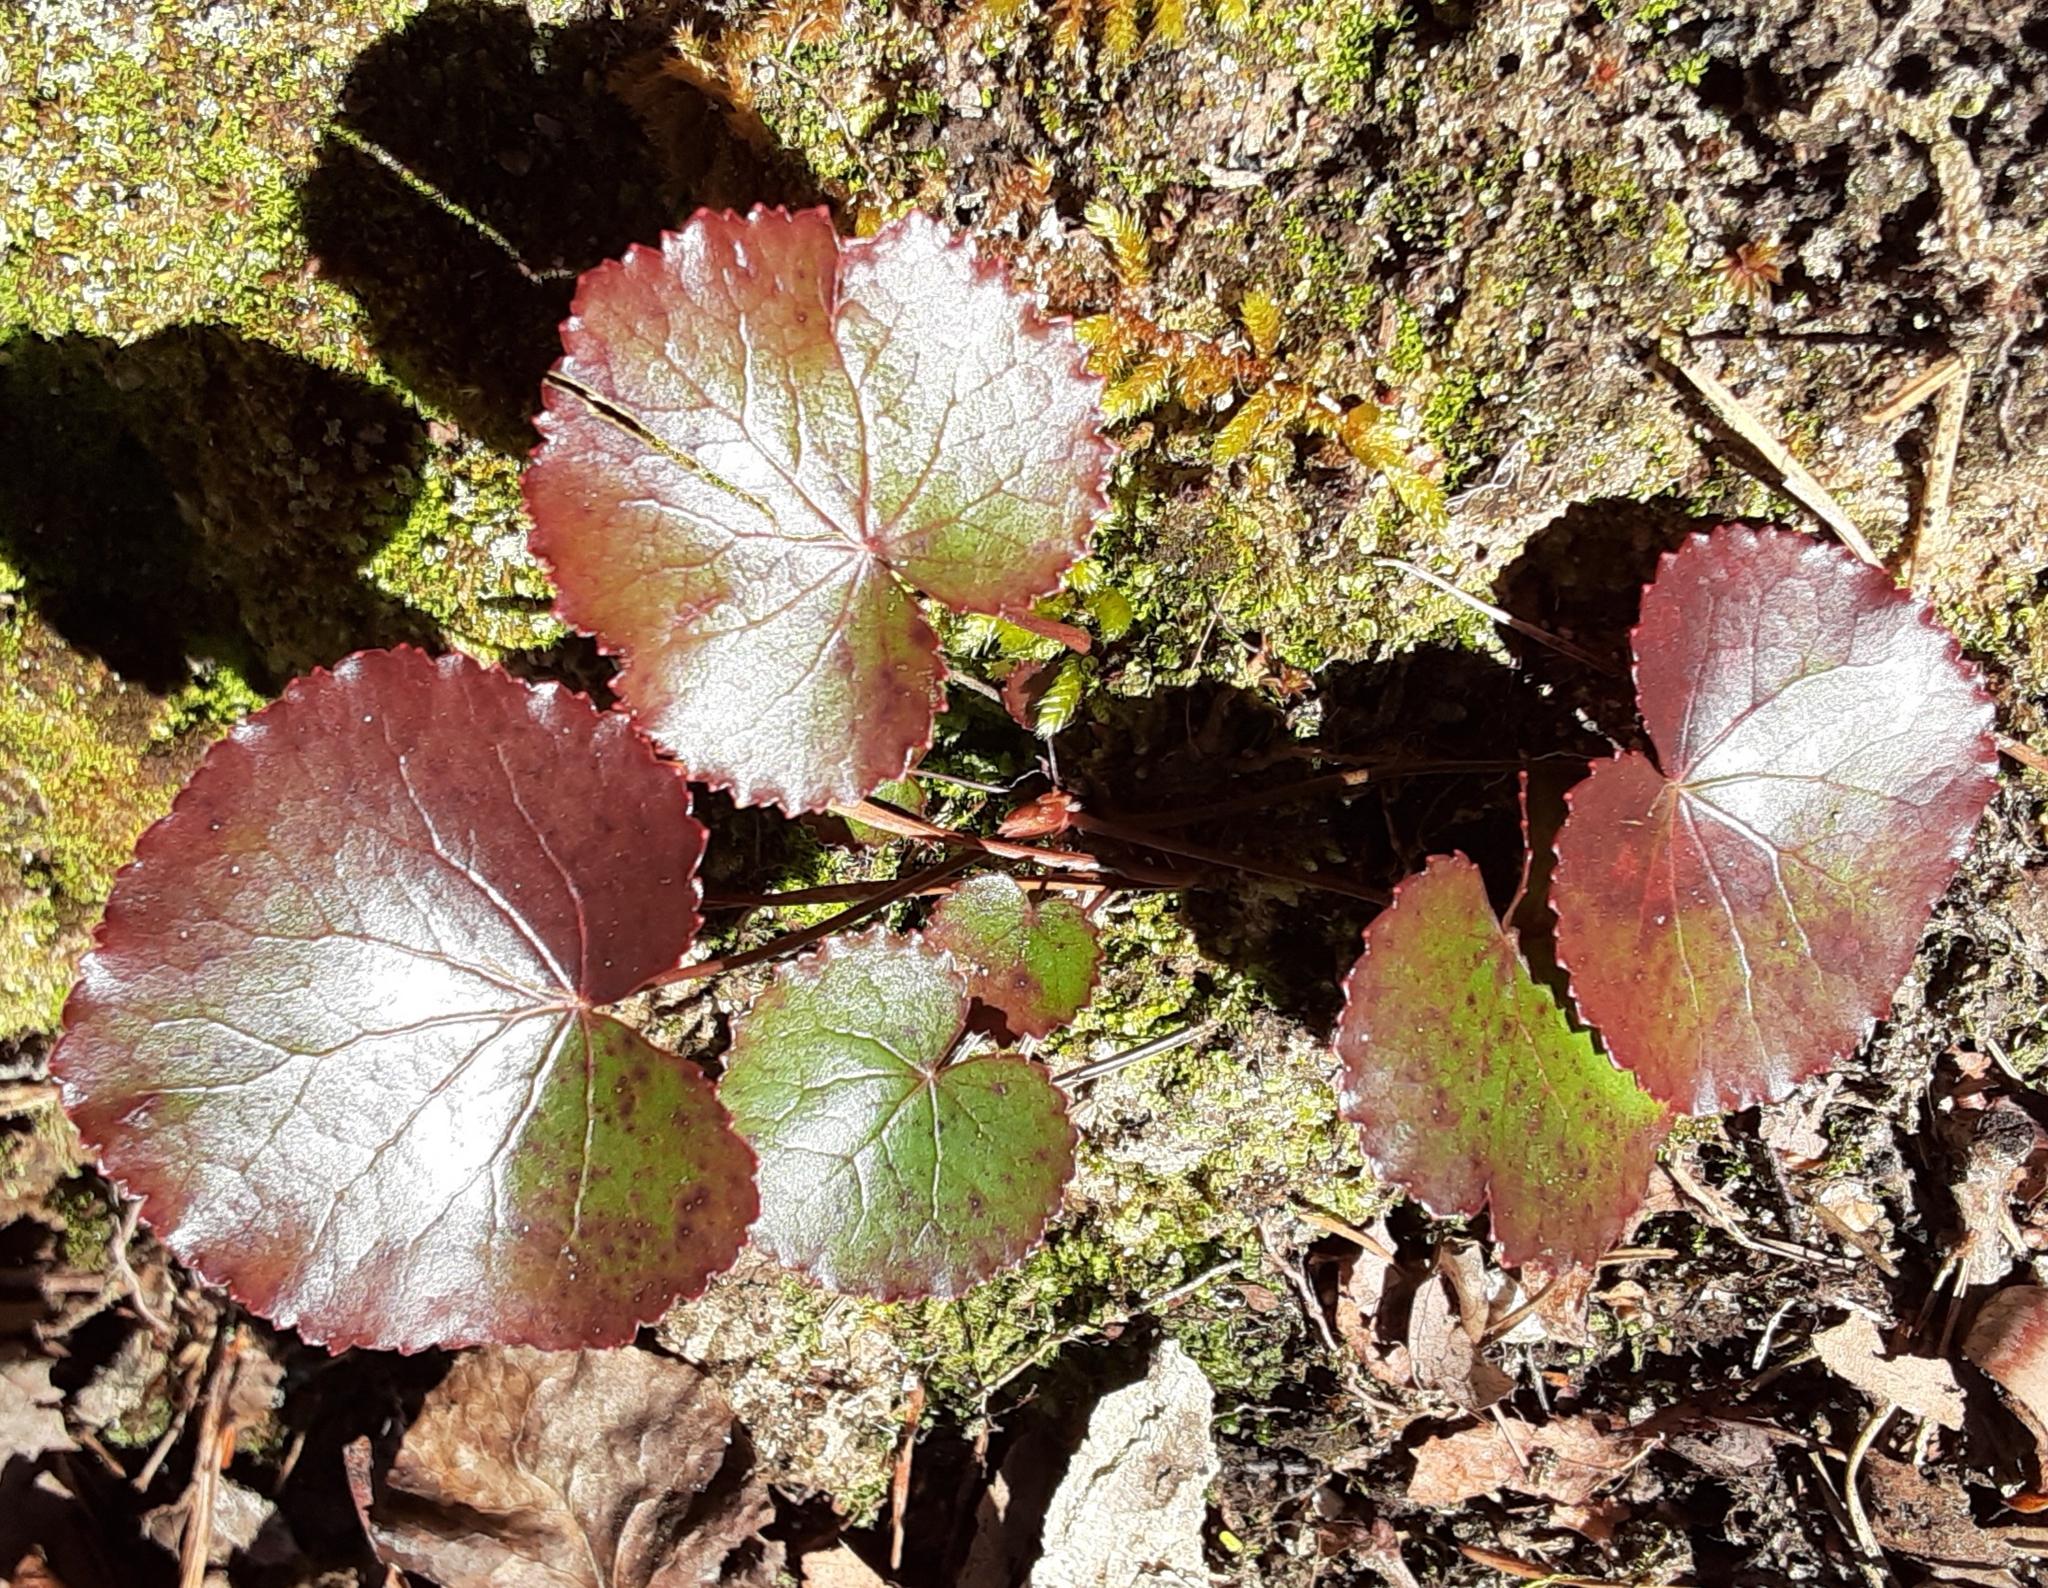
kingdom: Plantae
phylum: Tracheophyta
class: Magnoliopsida
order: Ericales
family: Diapensiaceae
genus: Galax
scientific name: Galax urceolata
